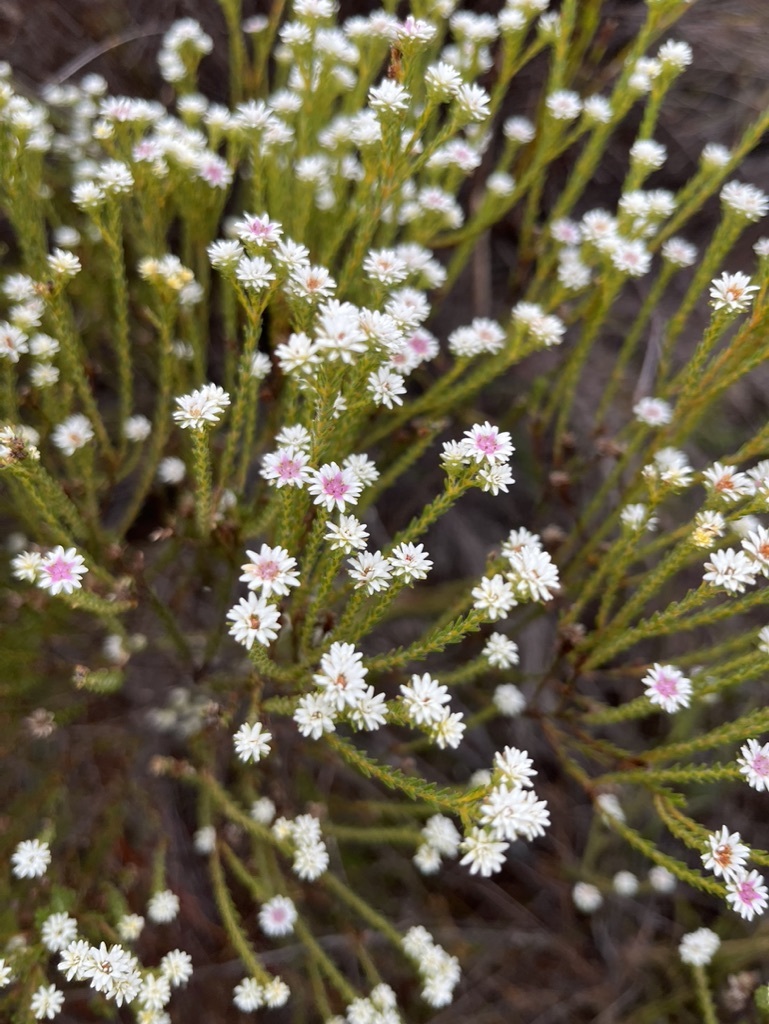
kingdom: Plantae
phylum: Tracheophyta
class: Magnoliopsida
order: Bruniales
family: Bruniaceae
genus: Staavia
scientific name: Staavia radiata
